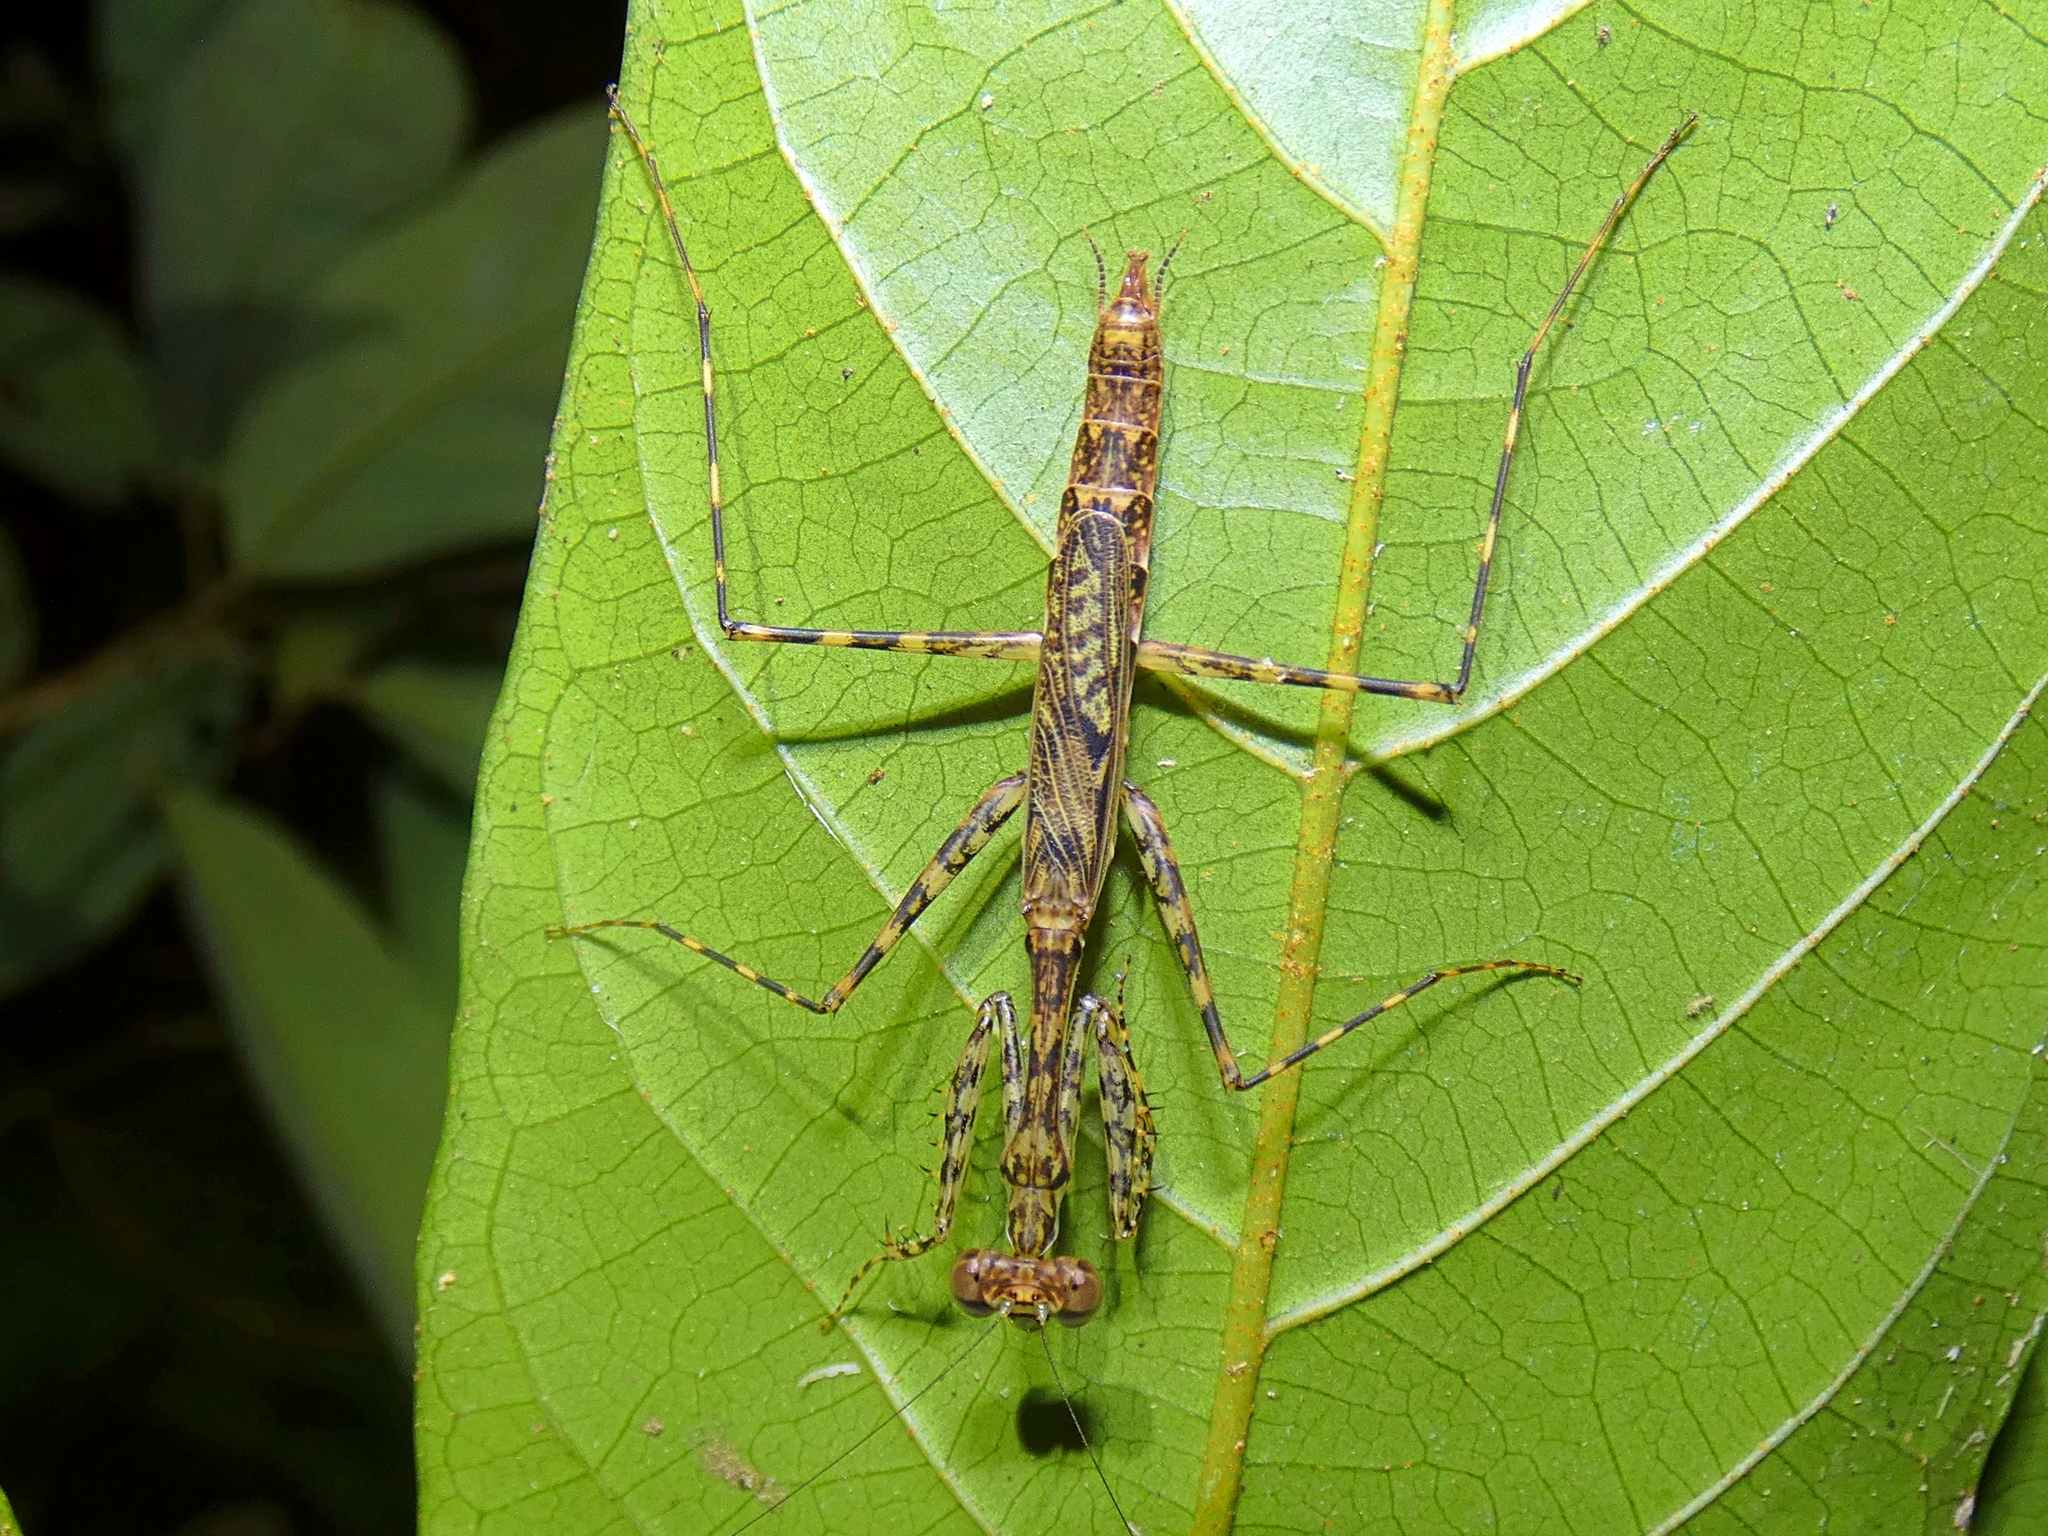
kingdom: Animalia
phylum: Arthropoda
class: Insecta
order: Mantodea
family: Nanomantidae
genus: Ciulfina
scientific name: Ciulfina rentzi
